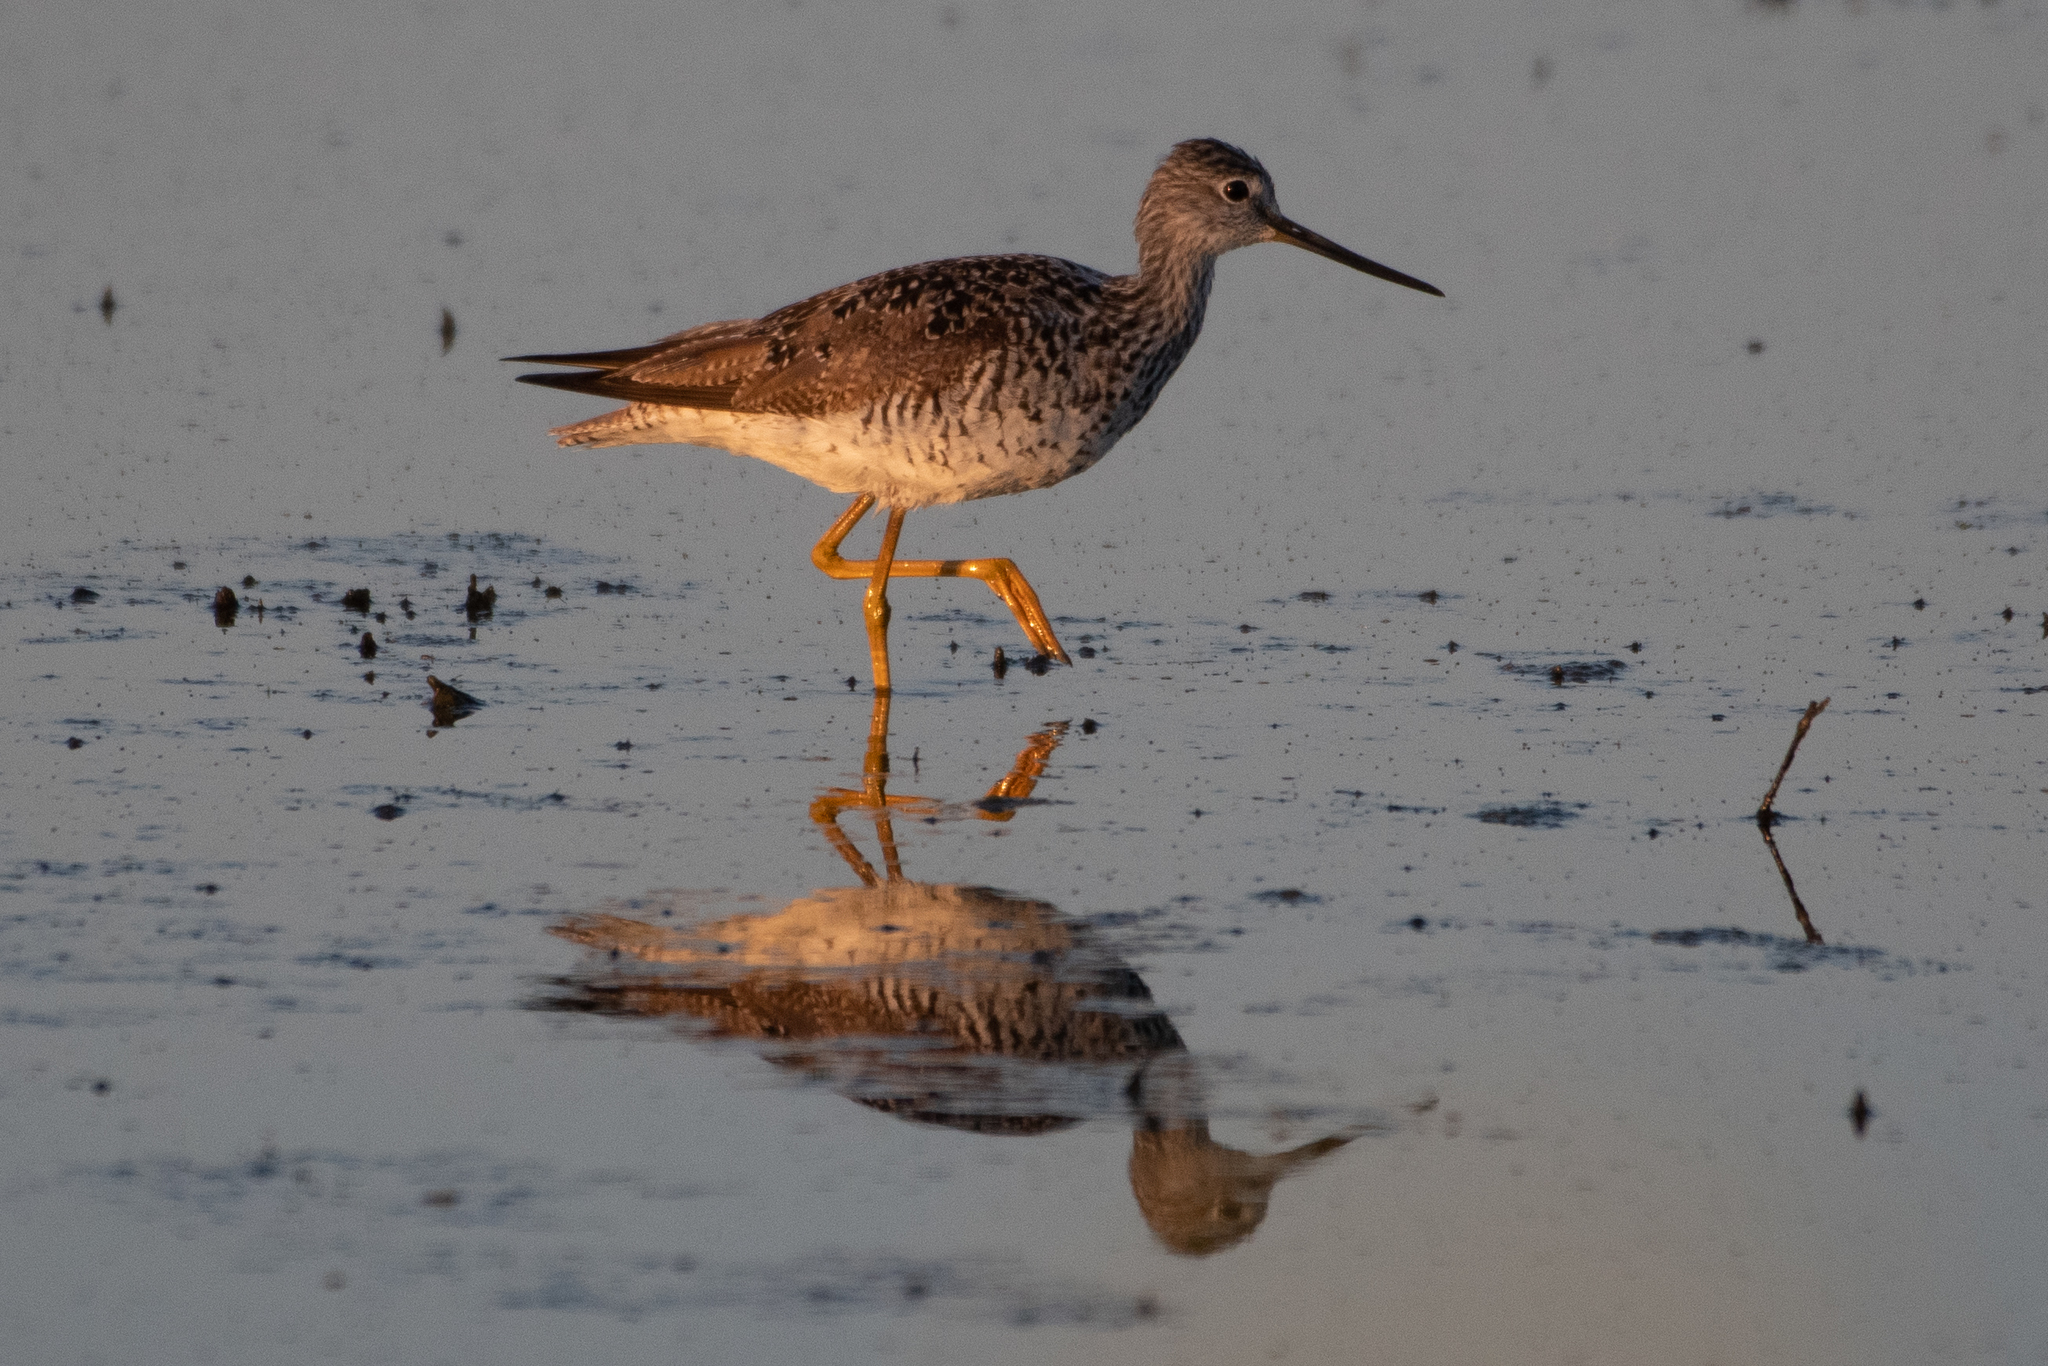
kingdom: Animalia
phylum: Chordata
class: Aves
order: Charadriiformes
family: Scolopacidae
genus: Tringa
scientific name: Tringa melanoleuca
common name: Greater yellowlegs
